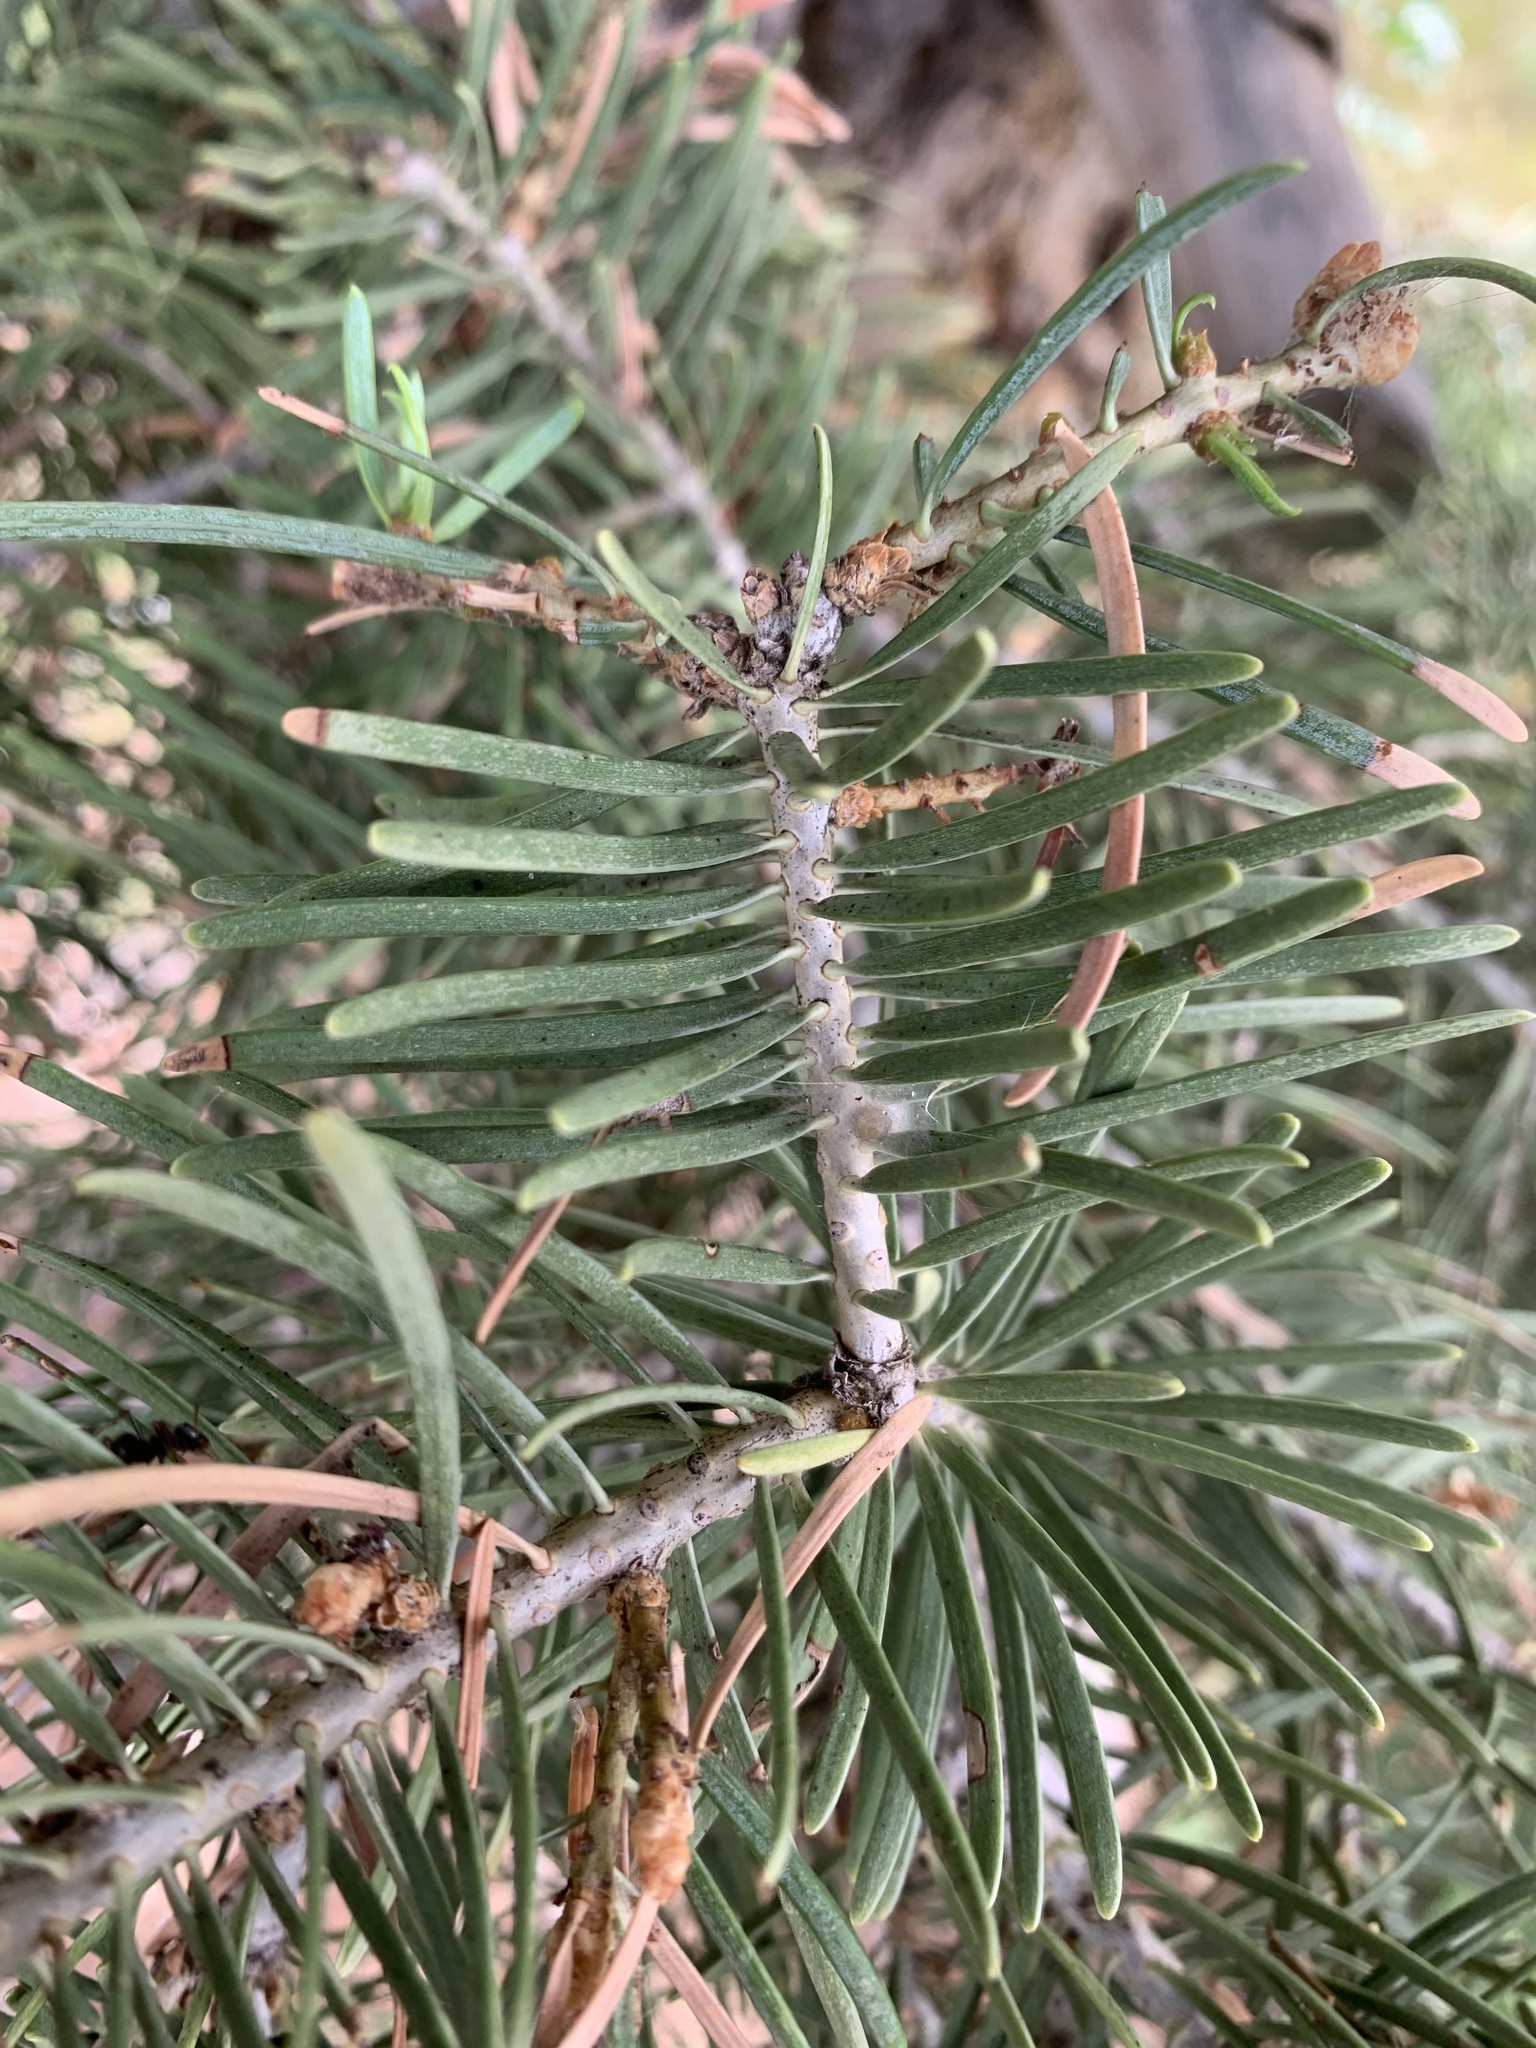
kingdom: Plantae
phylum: Tracheophyta
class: Pinopsida
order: Pinales
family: Pinaceae
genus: Abies
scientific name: Abies concolor
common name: Colorado fir
